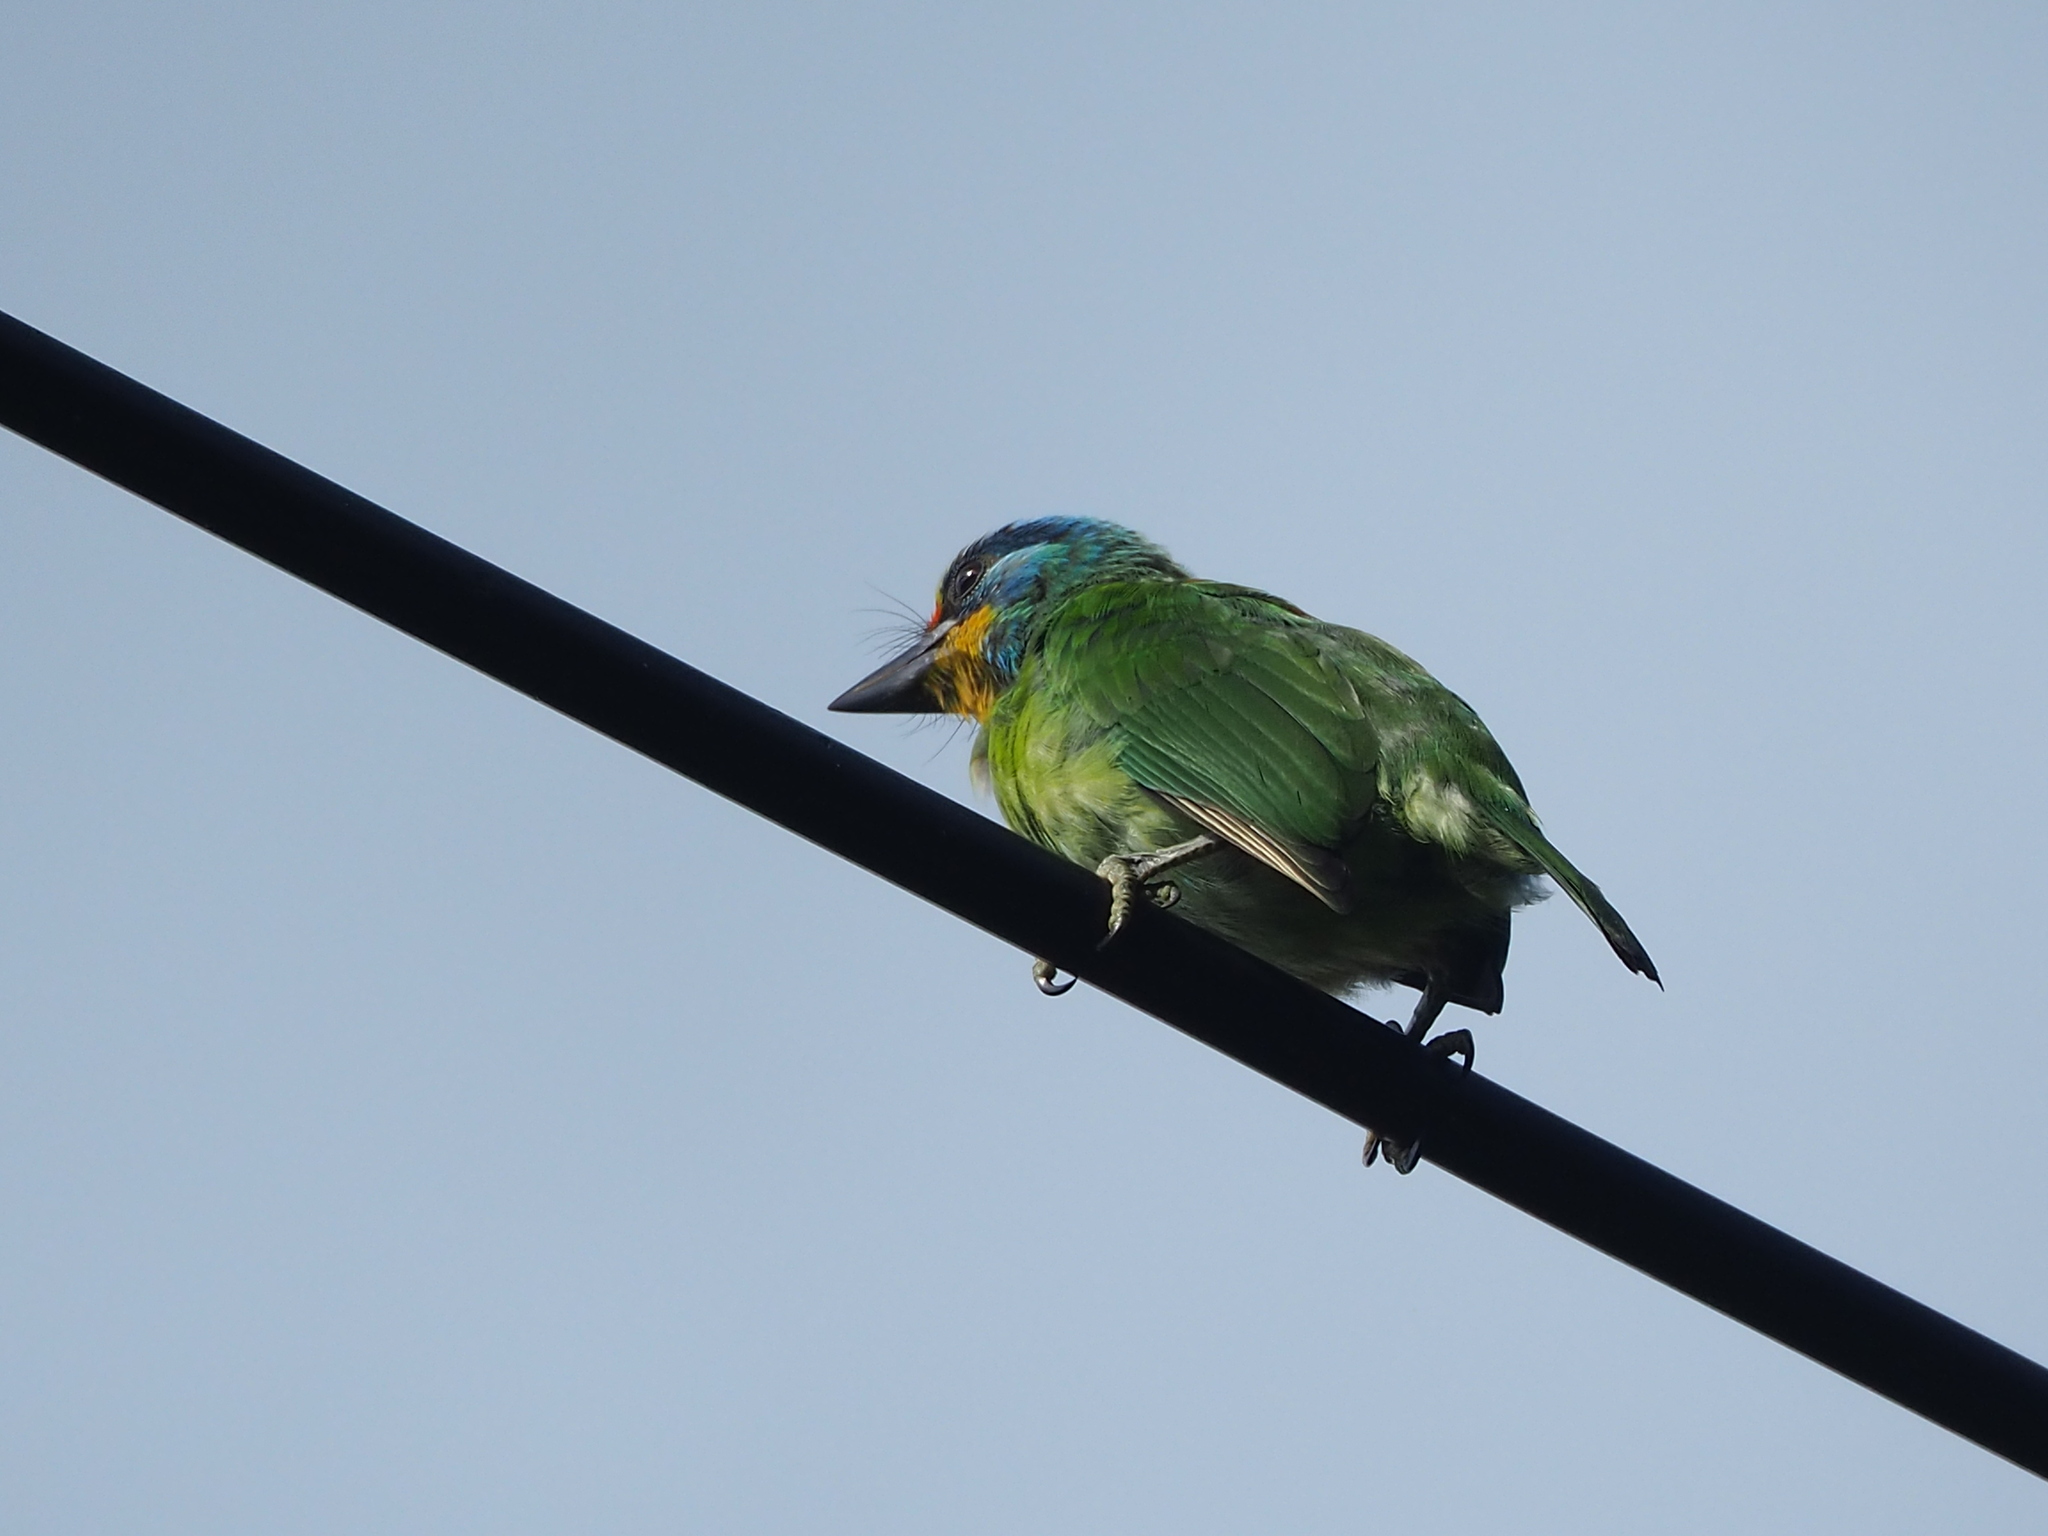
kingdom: Animalia
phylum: Chordata
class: Aves
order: Piciformes
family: Megalaimidae
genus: Psilopogon
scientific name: Psilopogon nuchalis
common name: Taiwan barbet
